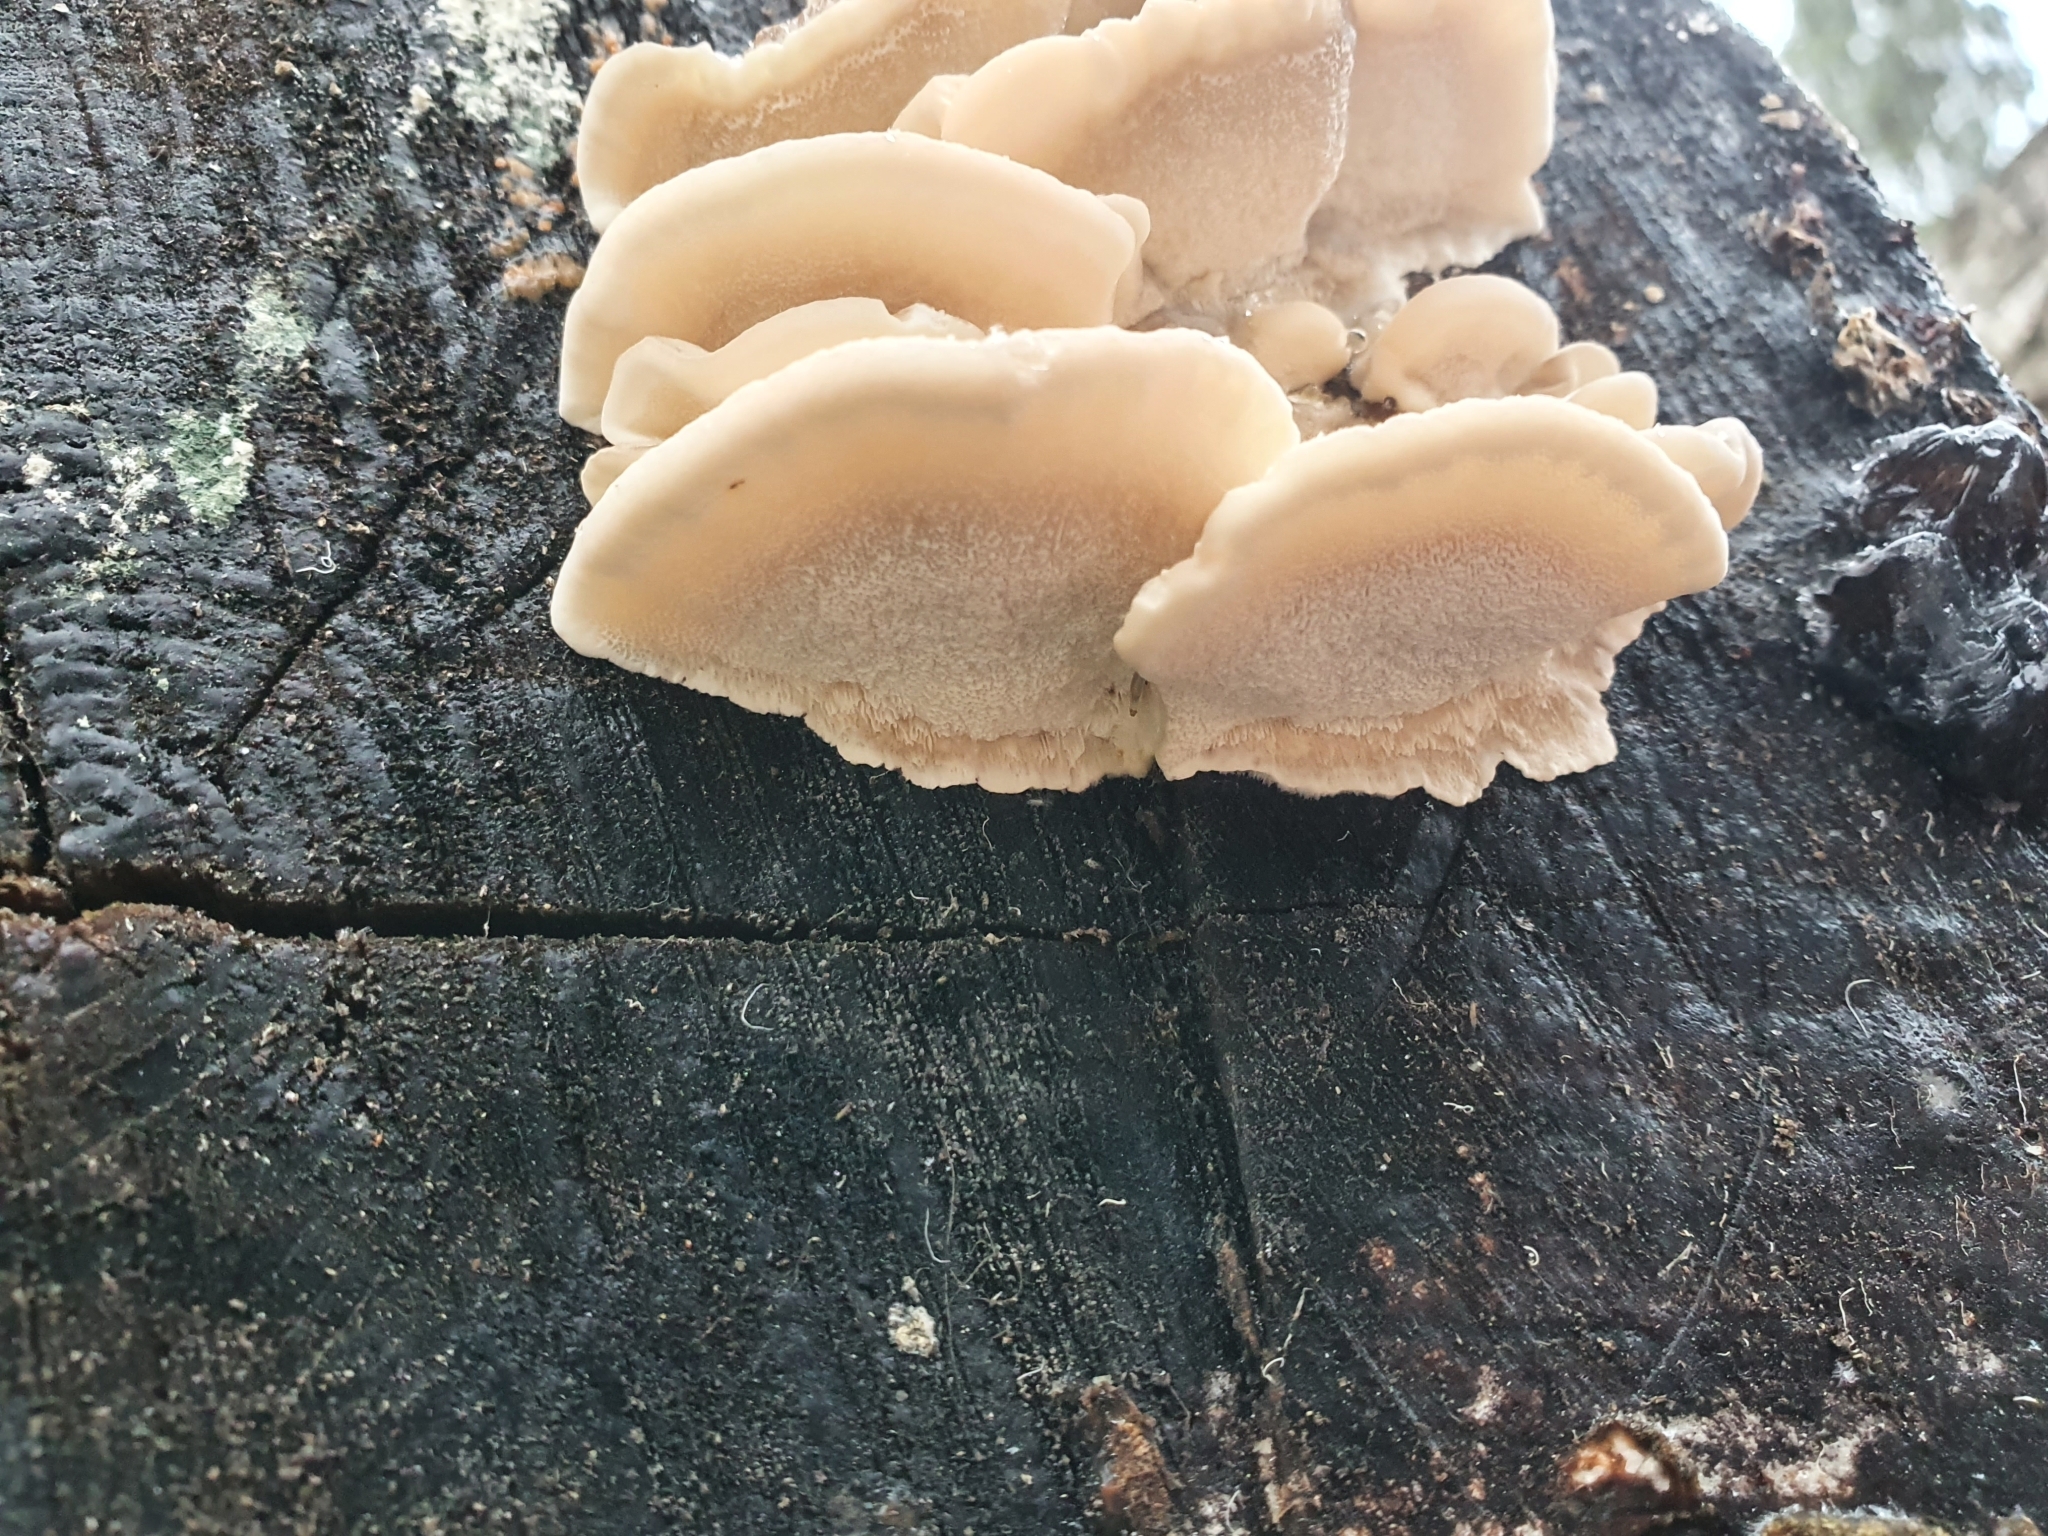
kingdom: Fungi
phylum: Basidiomycota
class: Agaricomycetes
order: Polyporales
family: Polyporaceae
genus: Trametes
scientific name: Trametes ochracea
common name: Ochre bracket
